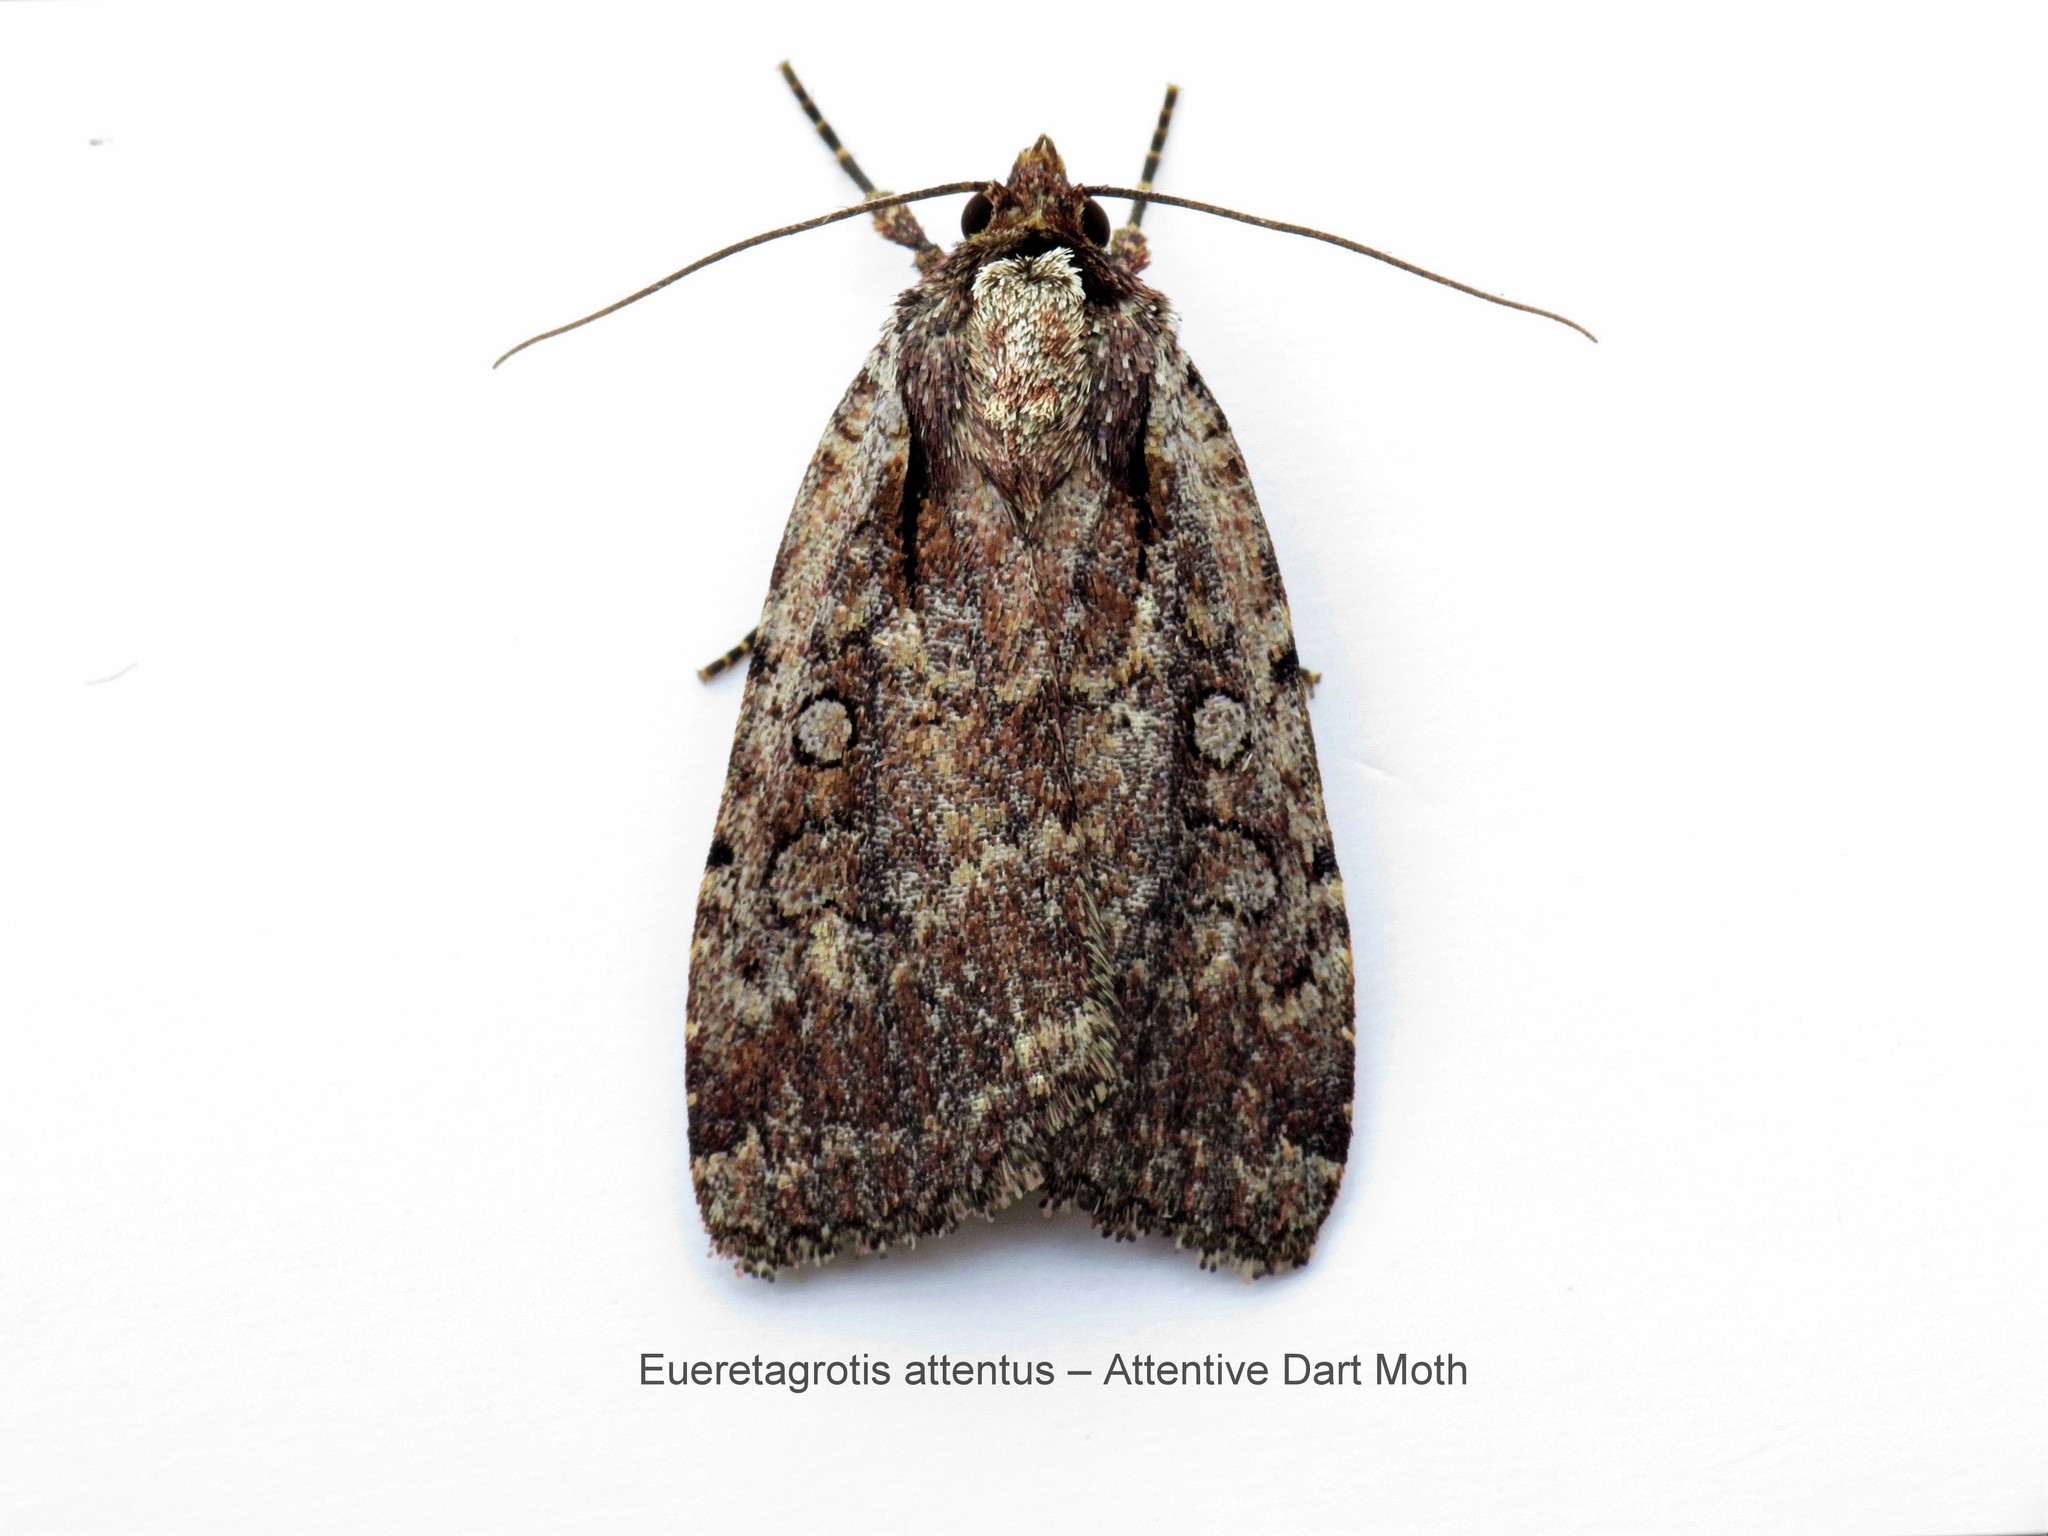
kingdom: Animalia
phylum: Arthropoda
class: Insecta
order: Lepidoptera
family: Noctuidae
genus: Eueretagrotis
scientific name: Eueretagrotis attentus
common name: Attentive dart
